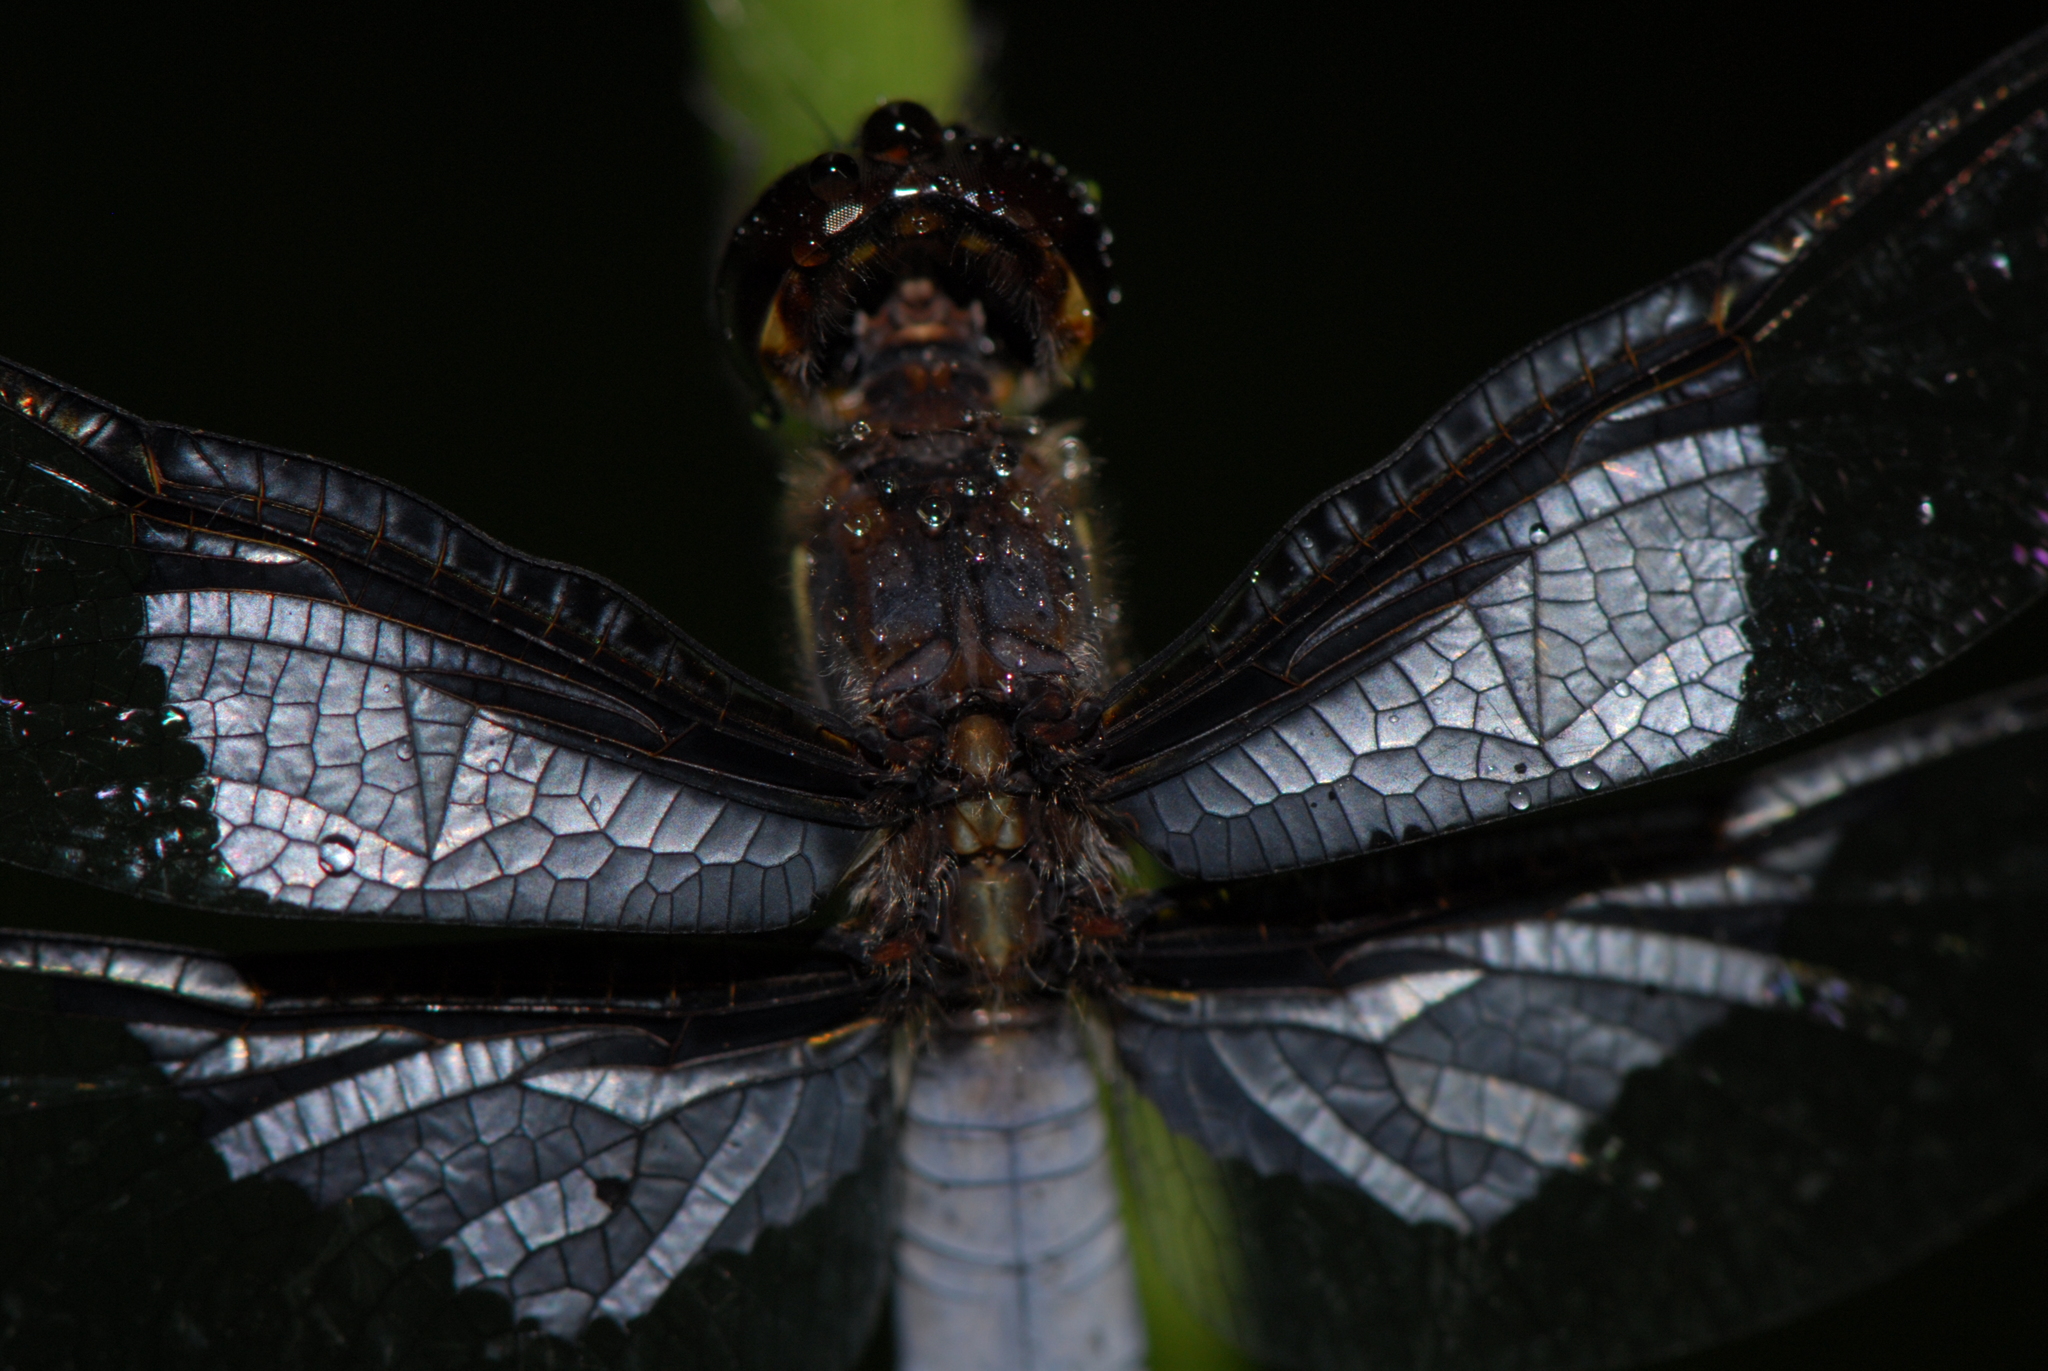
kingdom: Animalia
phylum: Arthropoda
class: Insecta
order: Odonata
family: Libellulidae
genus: Palpopleura
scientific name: Palpopleura vestita
